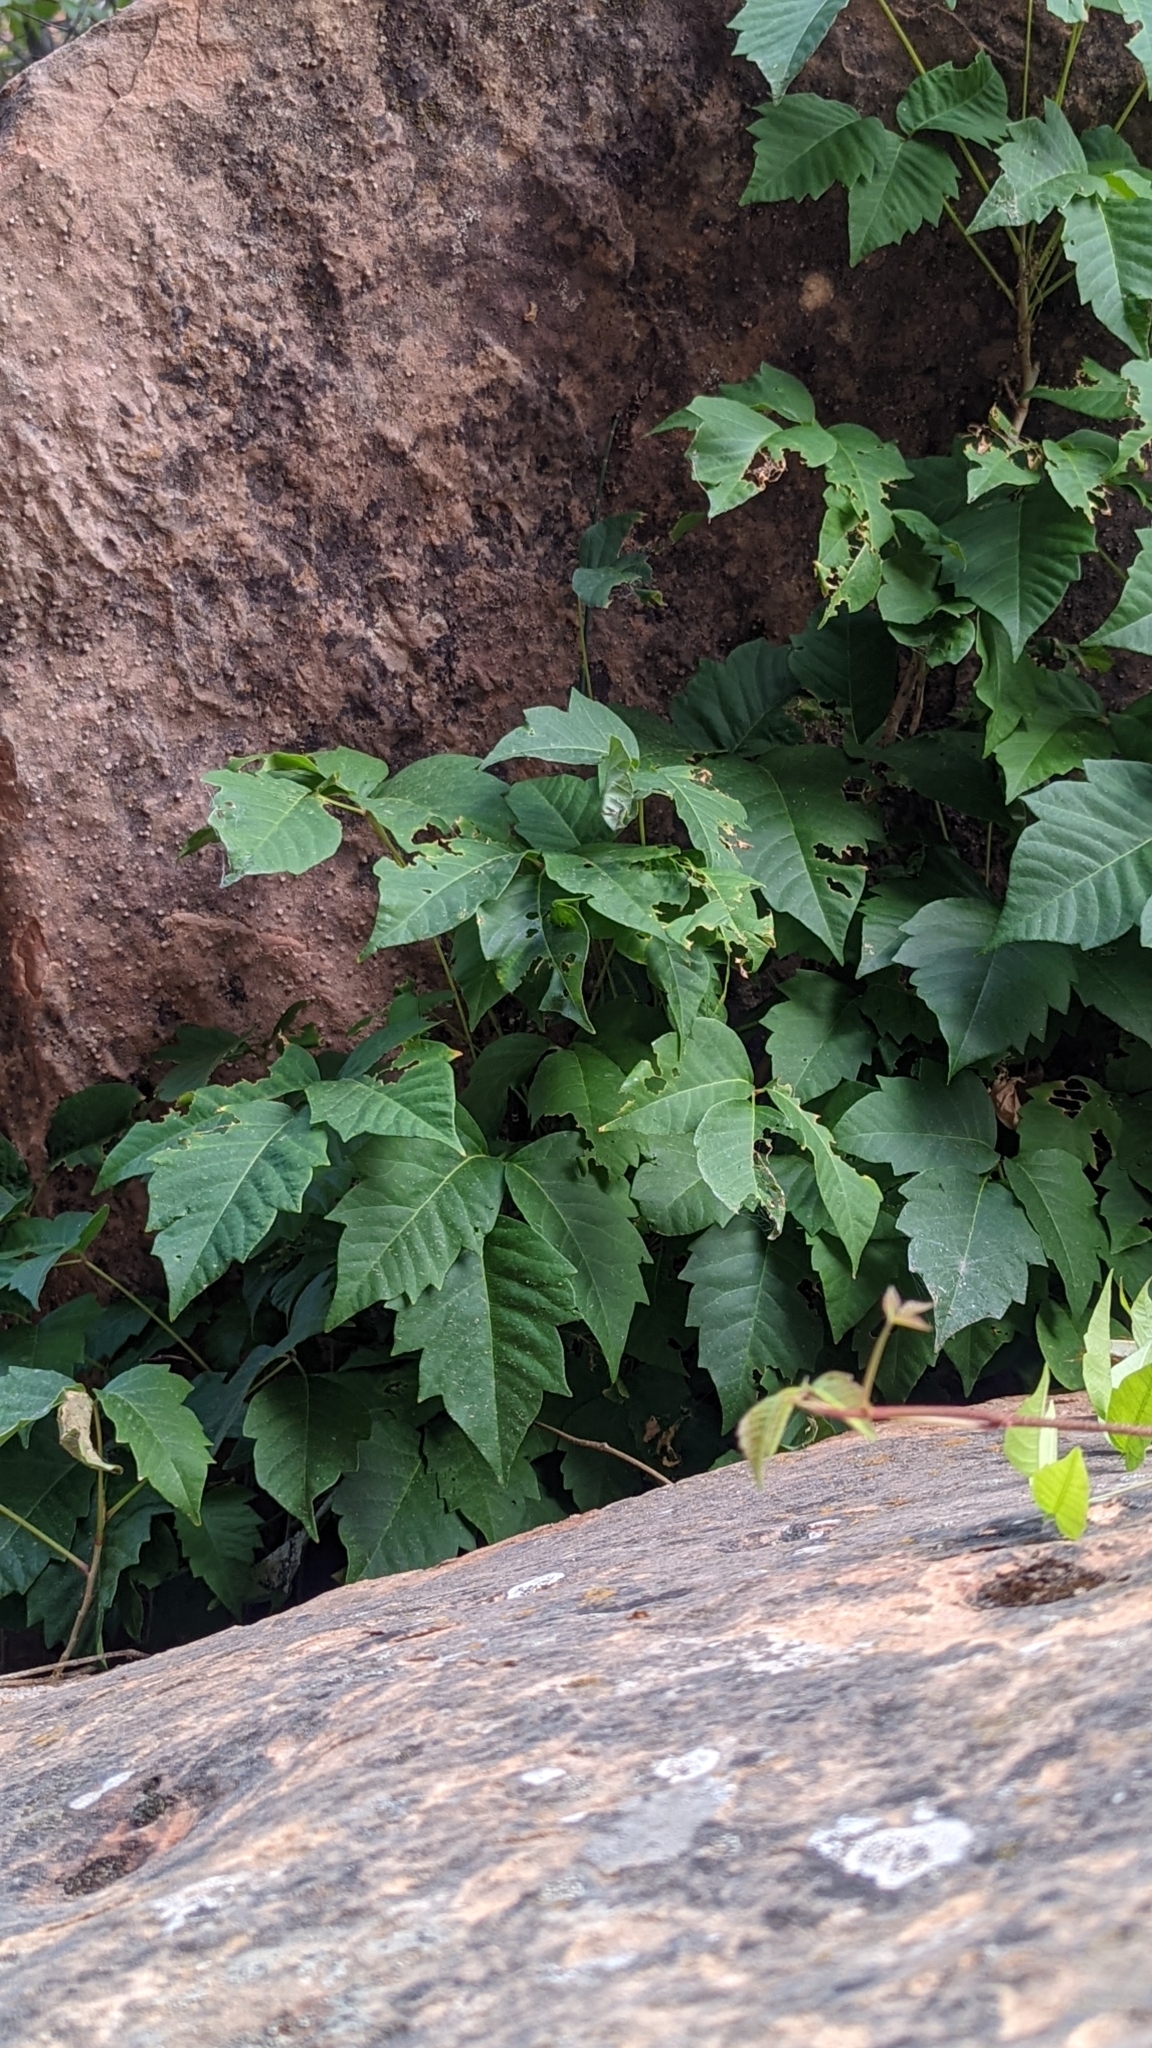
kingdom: Plantae
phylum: Tracheophyta
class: Magnoliopsida
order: Sapindales
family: Anacardiaceae
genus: Toxicodendron
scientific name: Toxicodendron rydbergii
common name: Rydberg's poison-ivy
